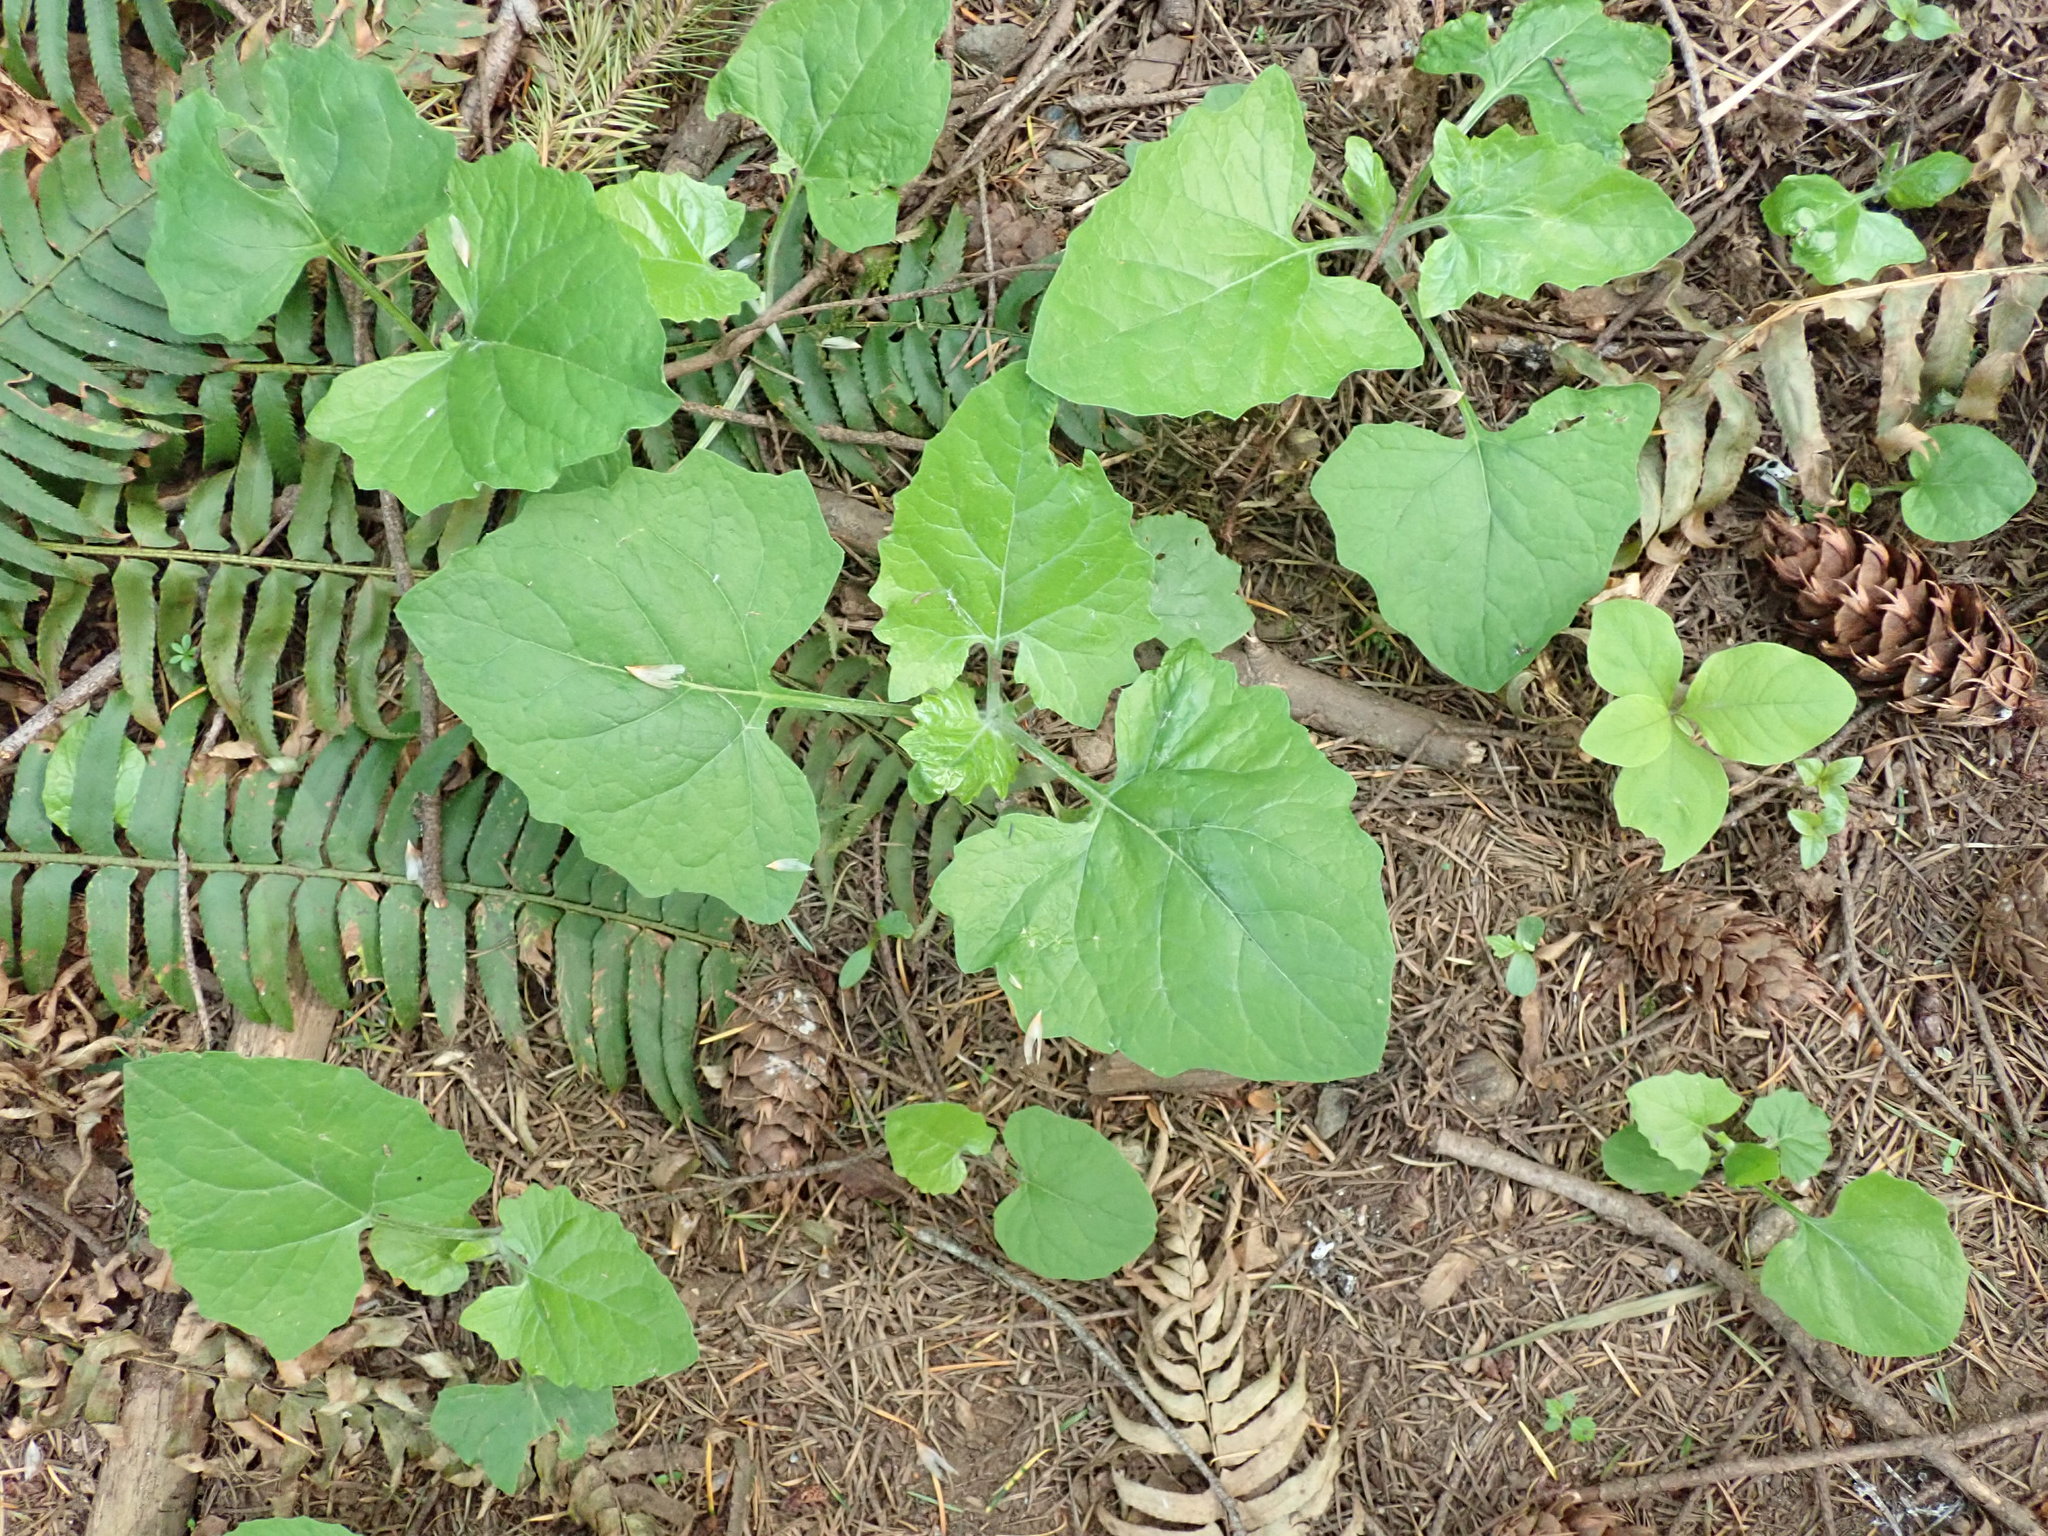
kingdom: Plantae
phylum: Tracheophyta
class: Magnoliopsida
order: Asterales
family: Asteraceae
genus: Adenocaulon
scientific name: Adenocaulon bicolor
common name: Trailplant
